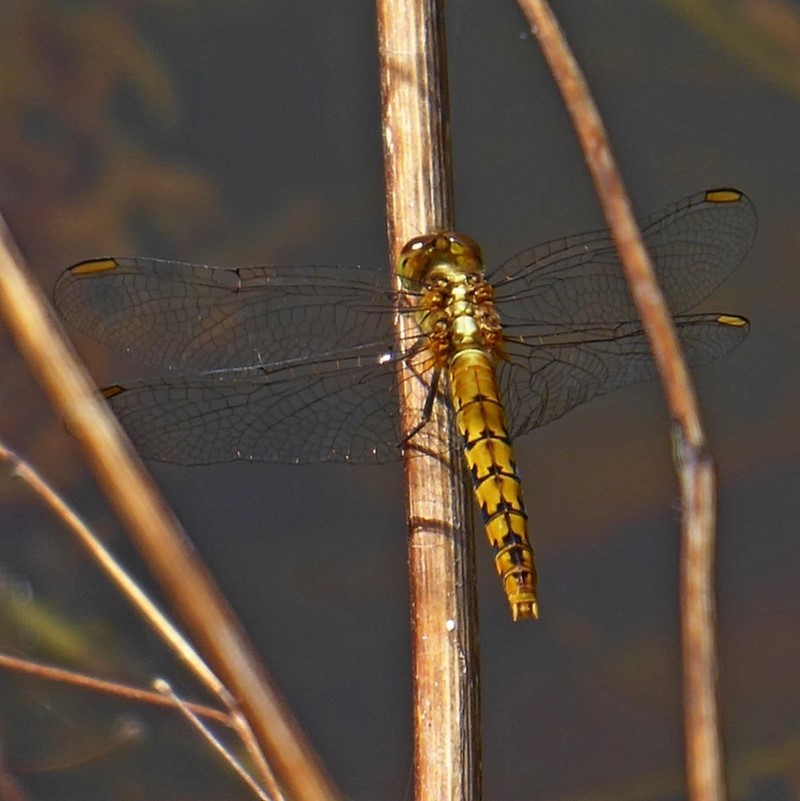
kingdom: Animalia
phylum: Arthropoda
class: Insecta
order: Odonata
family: Libellulidae
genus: Diplacodes
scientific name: Diplacodes melanopsis
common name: Black-faced percher
